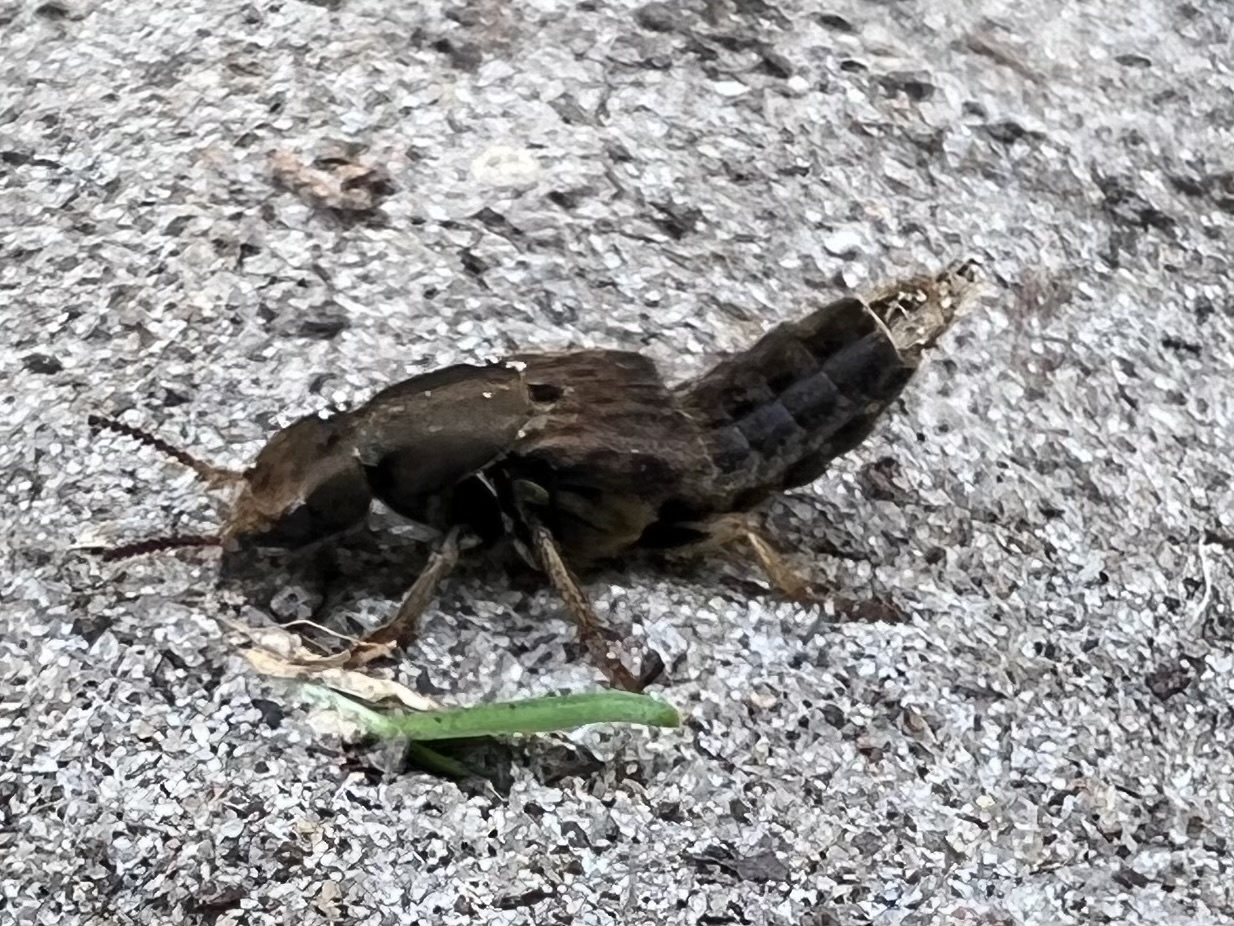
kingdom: Animalia
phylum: Arthropoda
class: Insecta
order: Coleoptera
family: Staphylinidae
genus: Platydracus
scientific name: Platydracus maculosus
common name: Brown rove beetle
